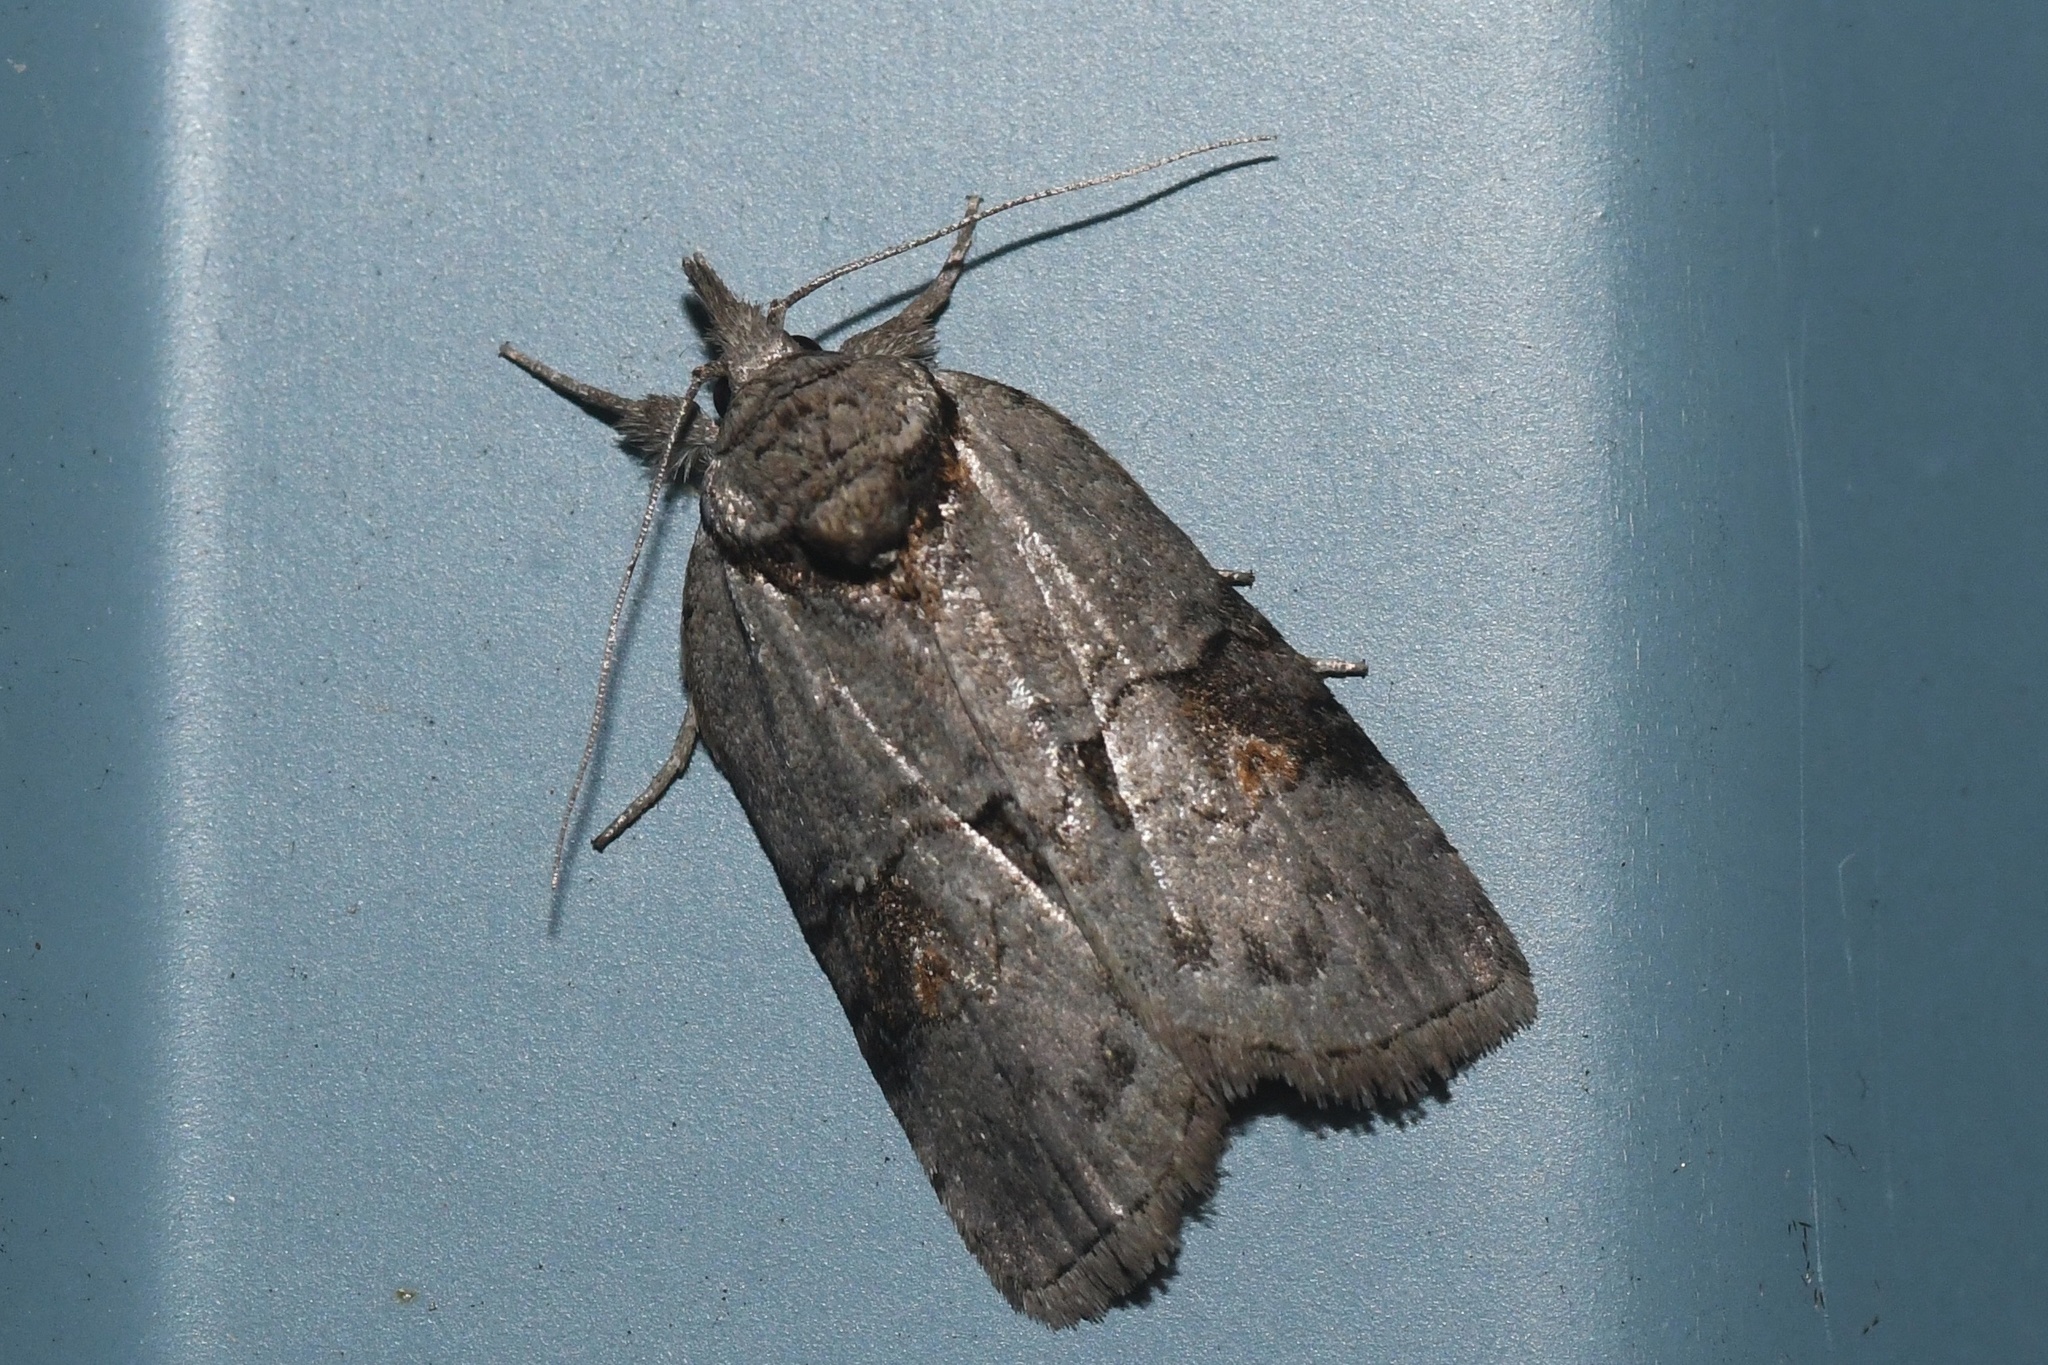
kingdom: Animalia
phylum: Arthropoda
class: Insecta
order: Lepidoptera
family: Nolidae
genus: Nycteola
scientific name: Nycteola metaspilella
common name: Forgotten frigid owlet
